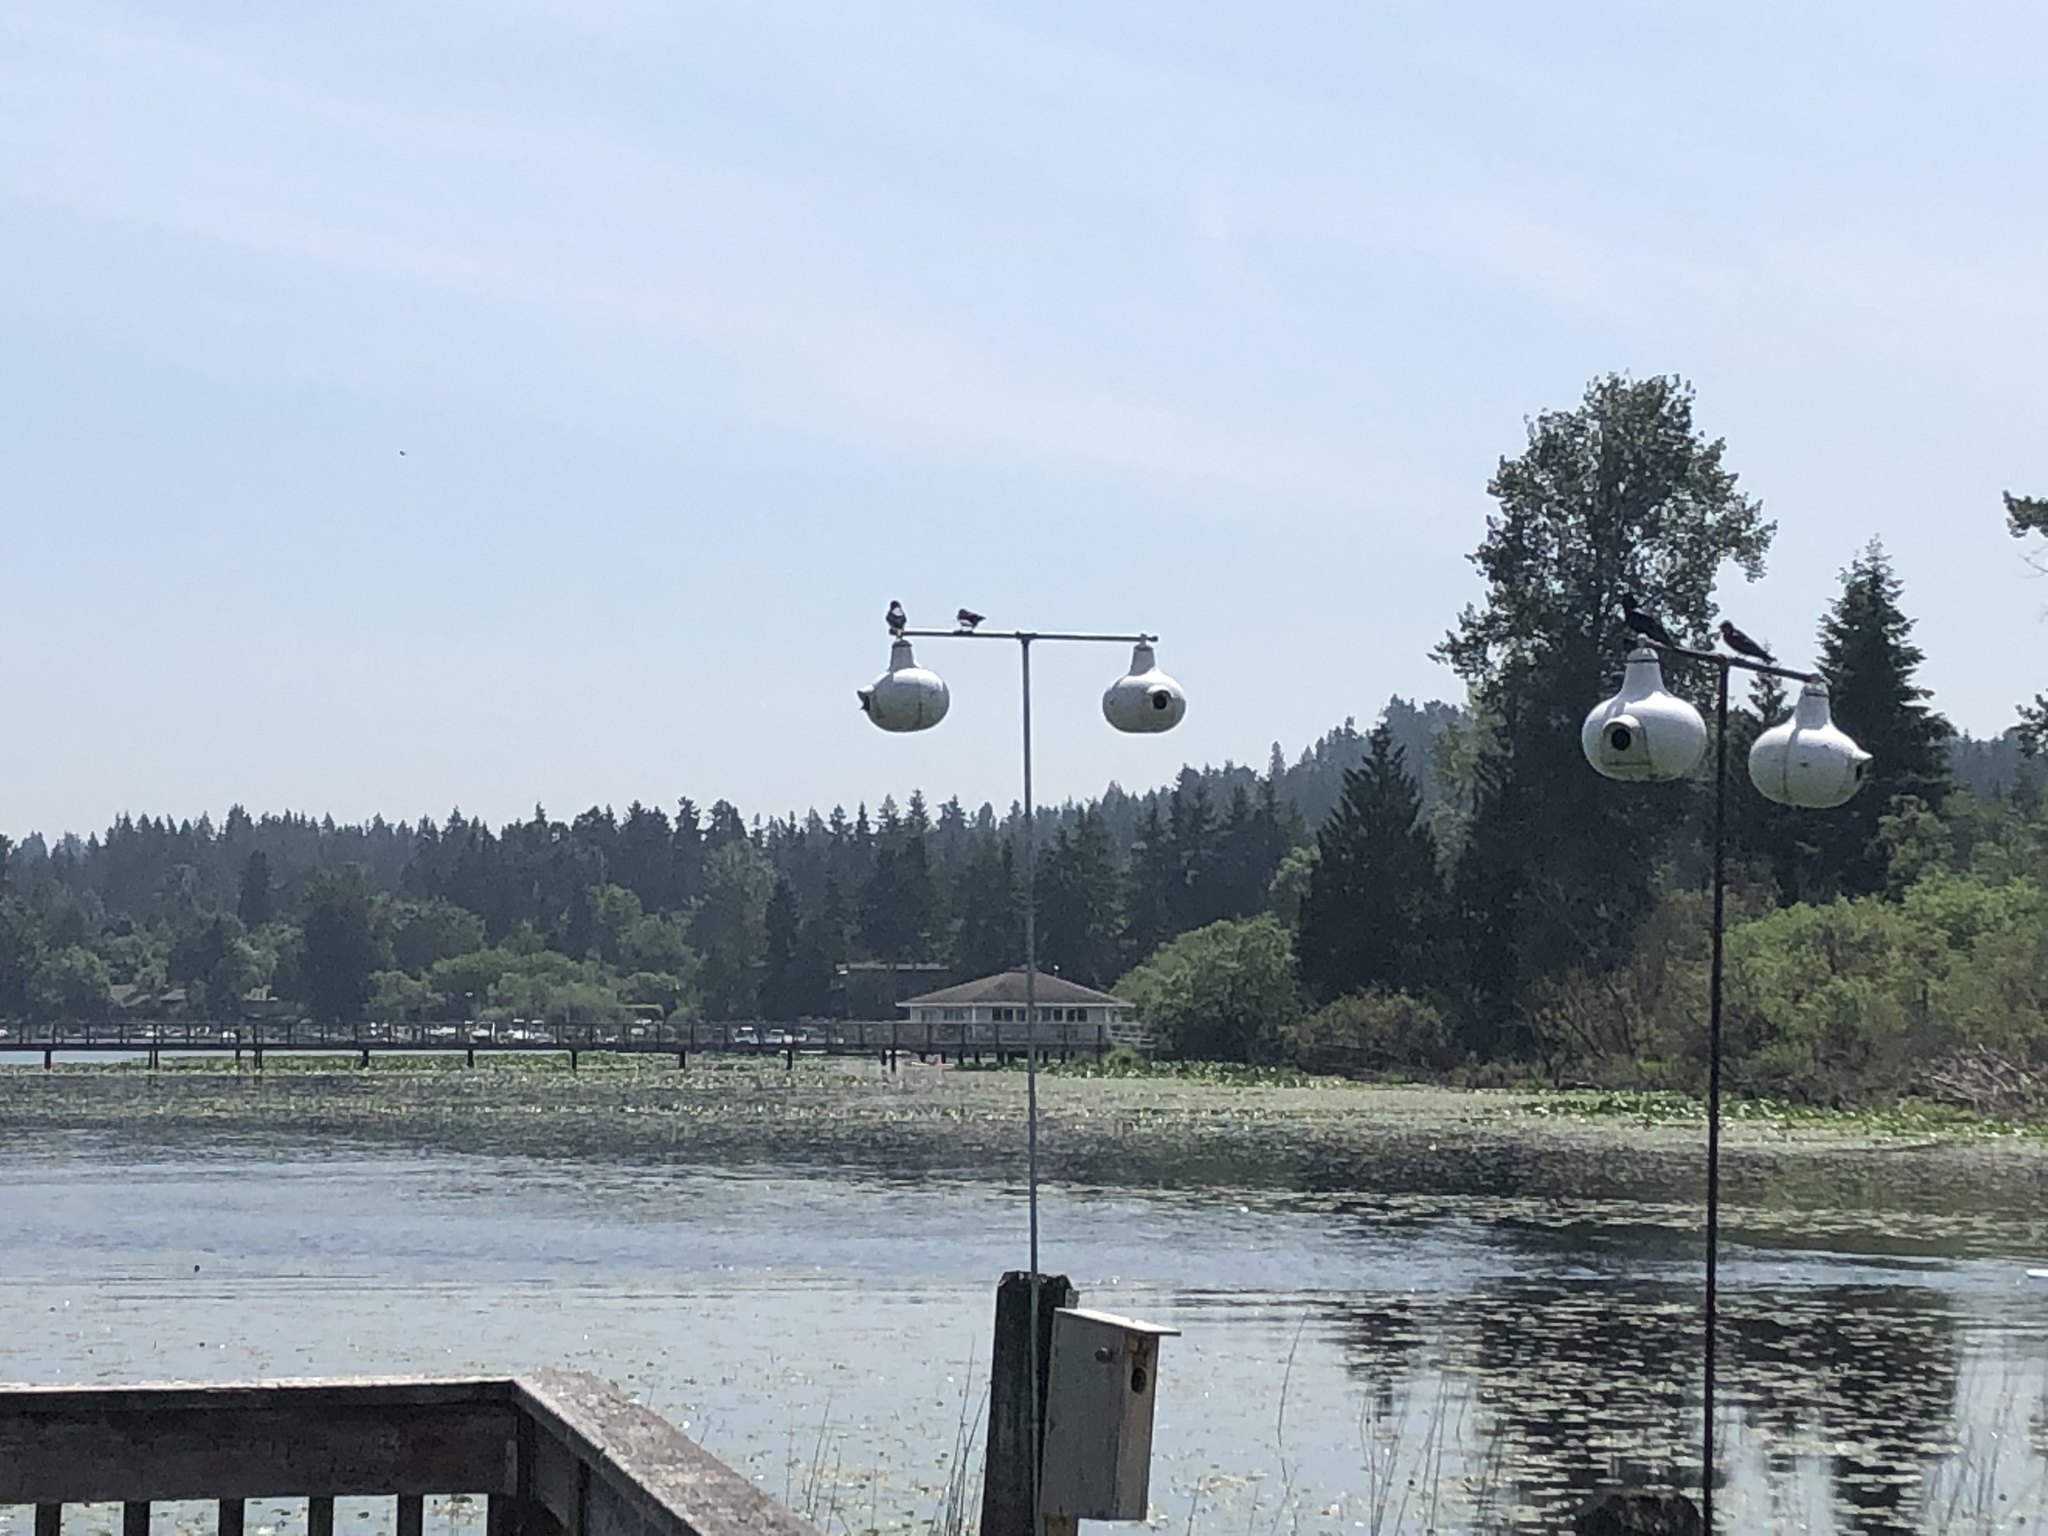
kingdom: Animalia
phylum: Chordata
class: Aves
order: Passeriformes
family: Hirundinidae
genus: Progne
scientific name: Progne subis
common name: Purple martin
